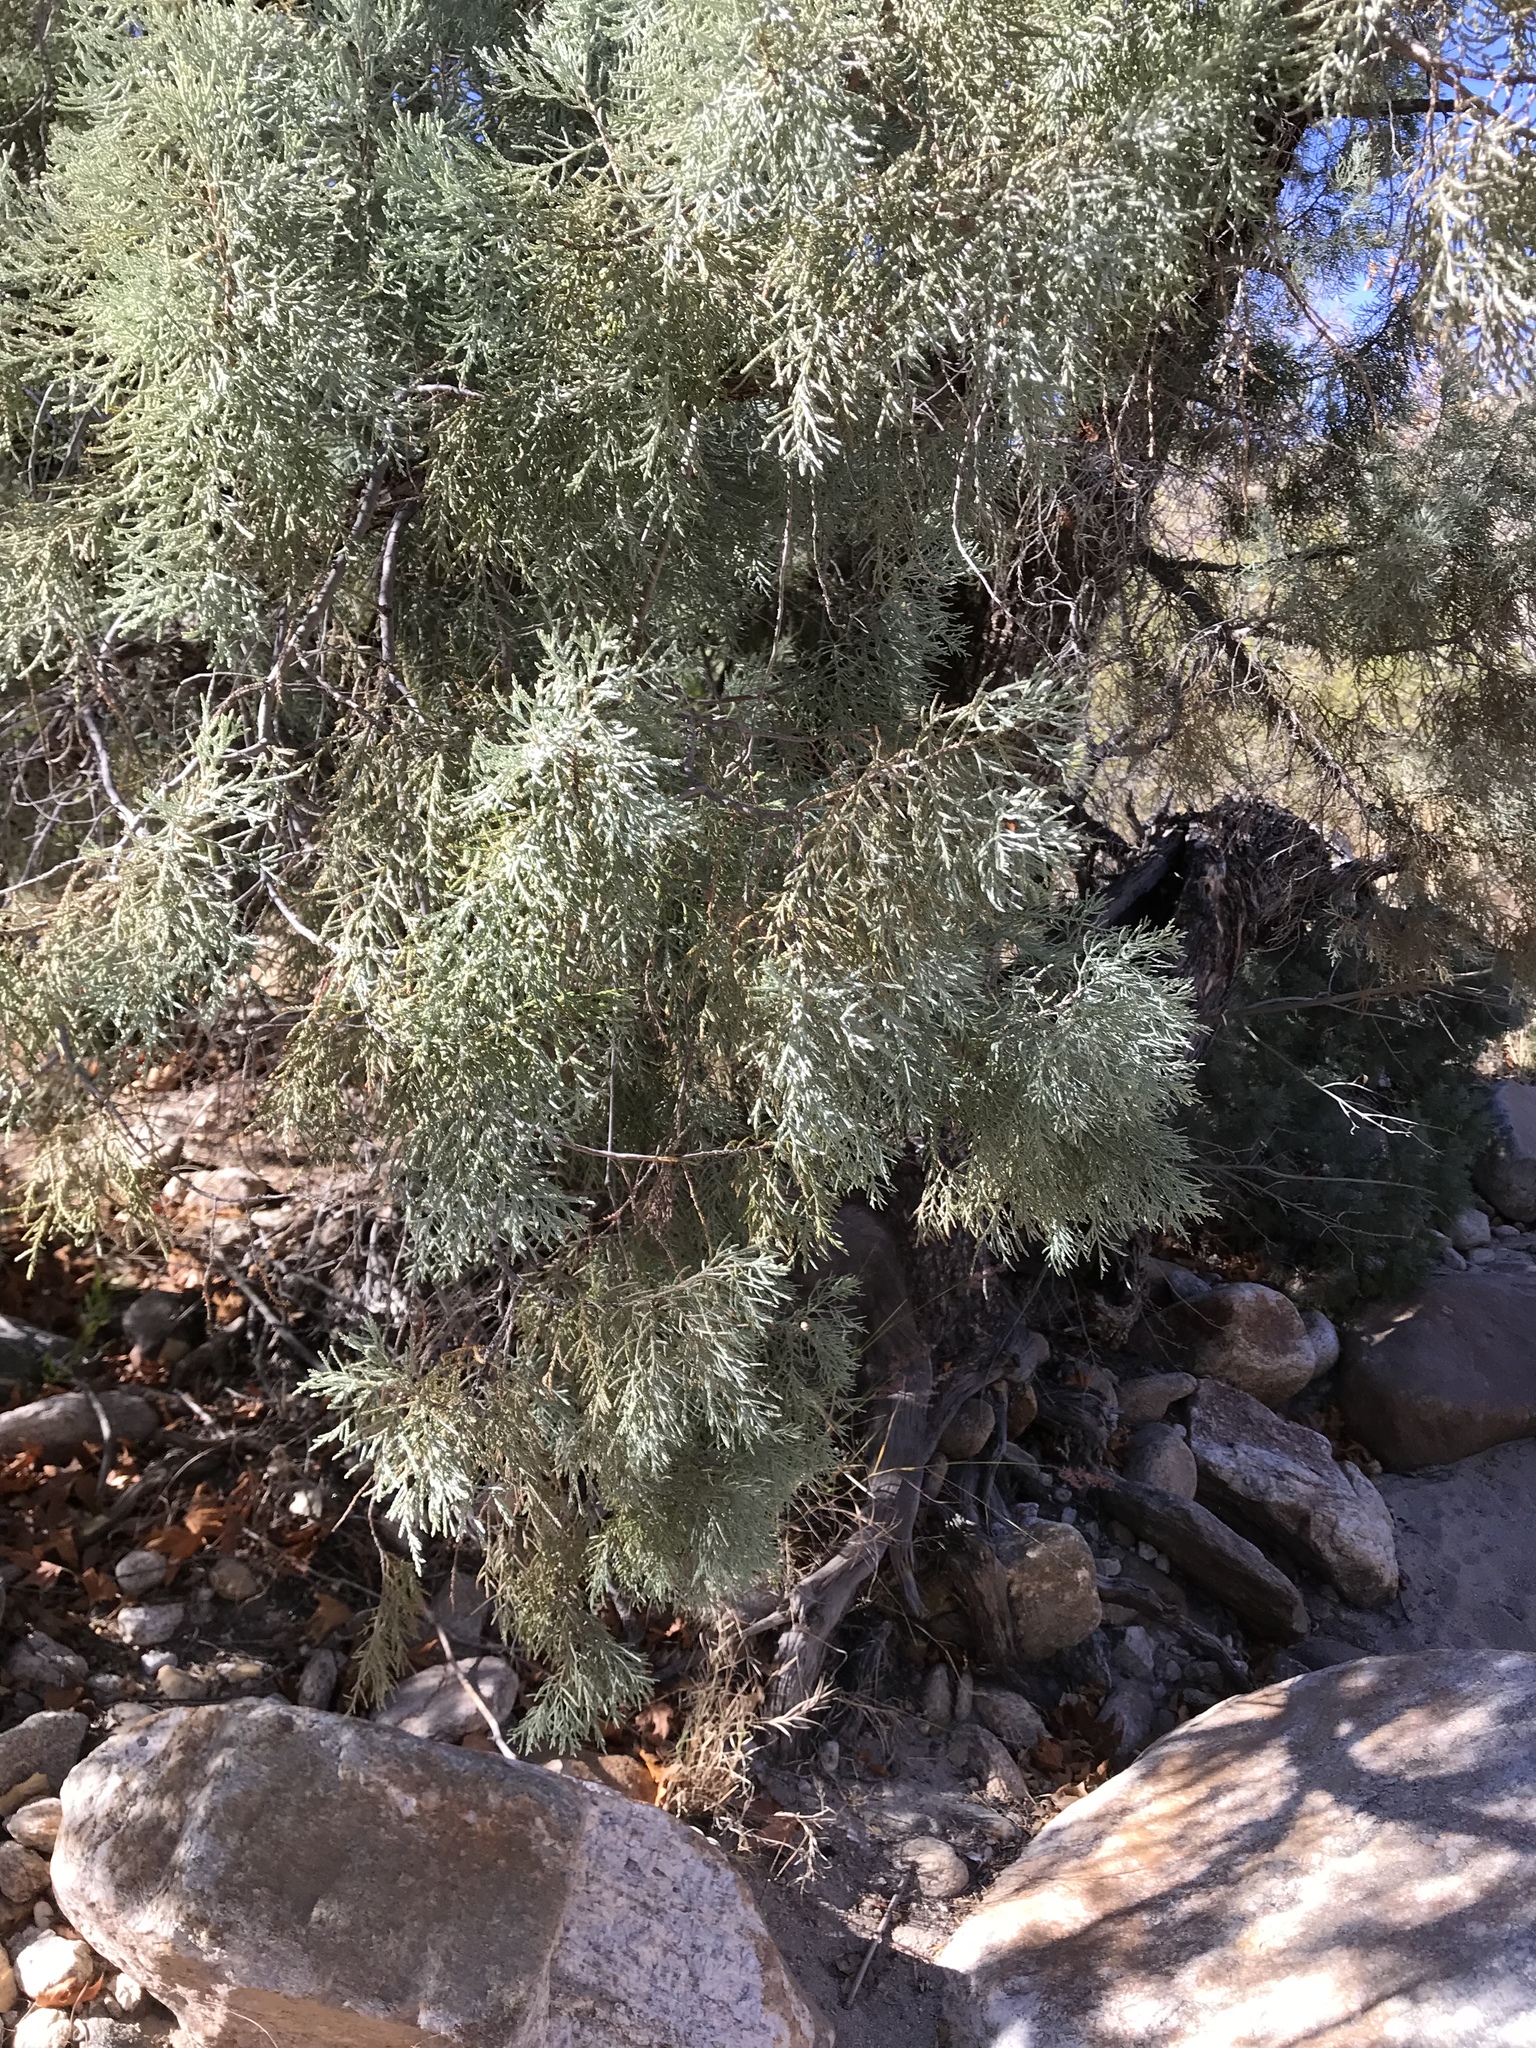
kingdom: Plantae
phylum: Tracheophyta
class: Pinopsida
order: Pinales
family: Cupressaceae
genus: Juniperus
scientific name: Juniperus deppeana
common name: Alligator juniper
